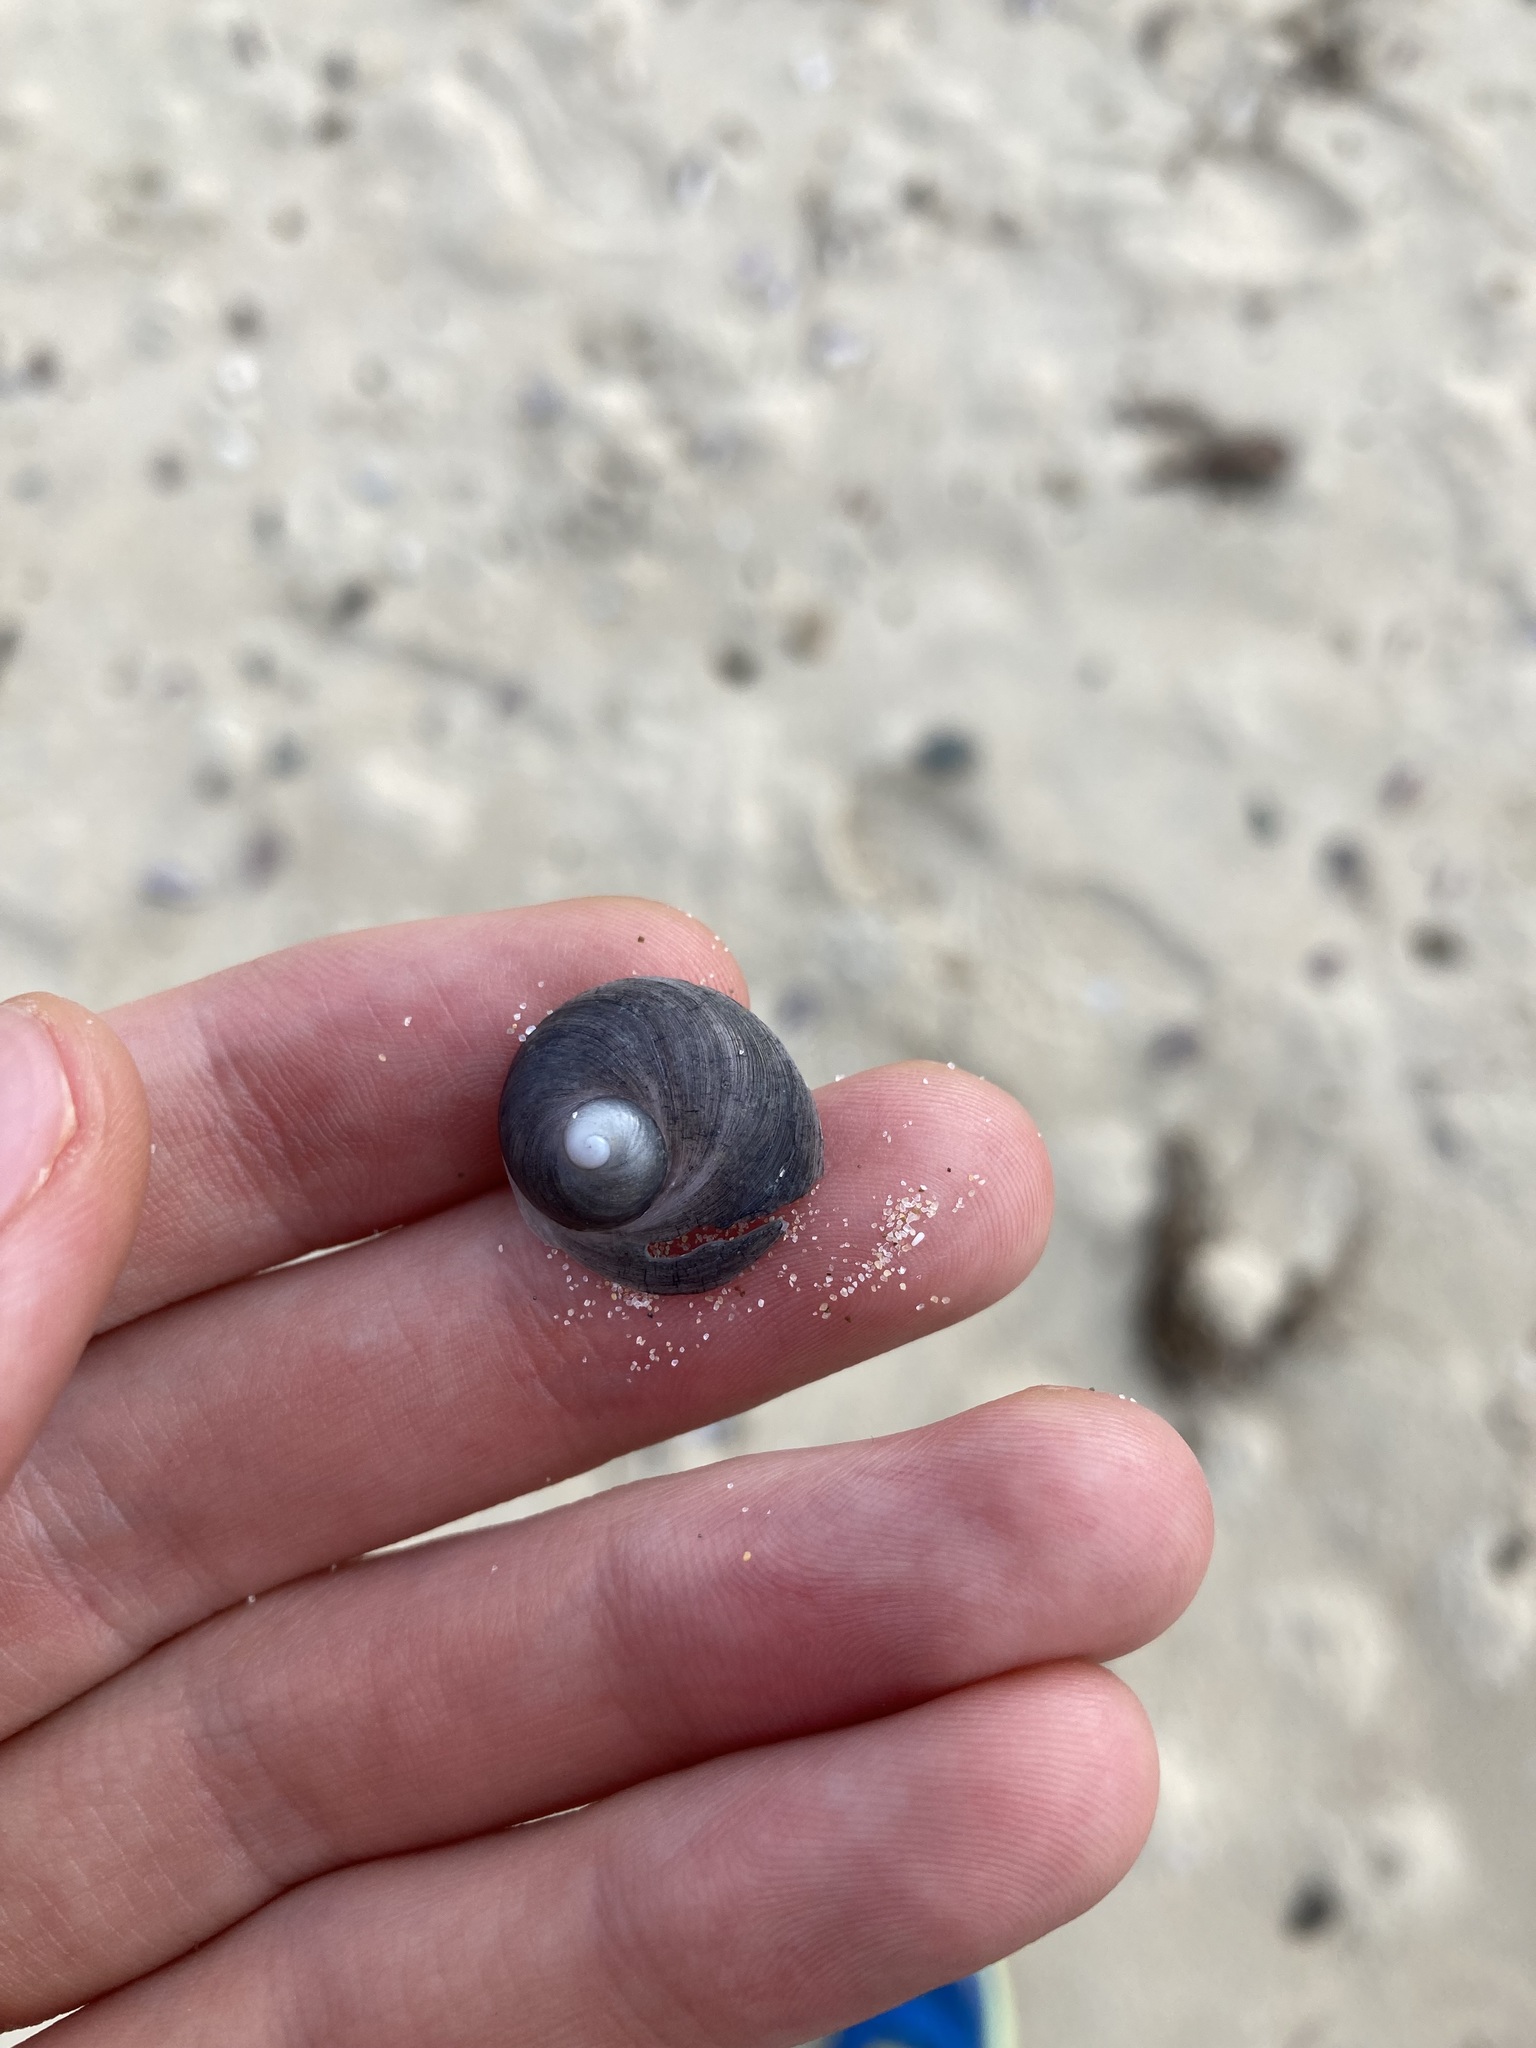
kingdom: Animalia
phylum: Mollusca
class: Gastropoda
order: Littorinimorpha
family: Calyptraeidae
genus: Sigapatella
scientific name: Sigapatella calyptraeformis
